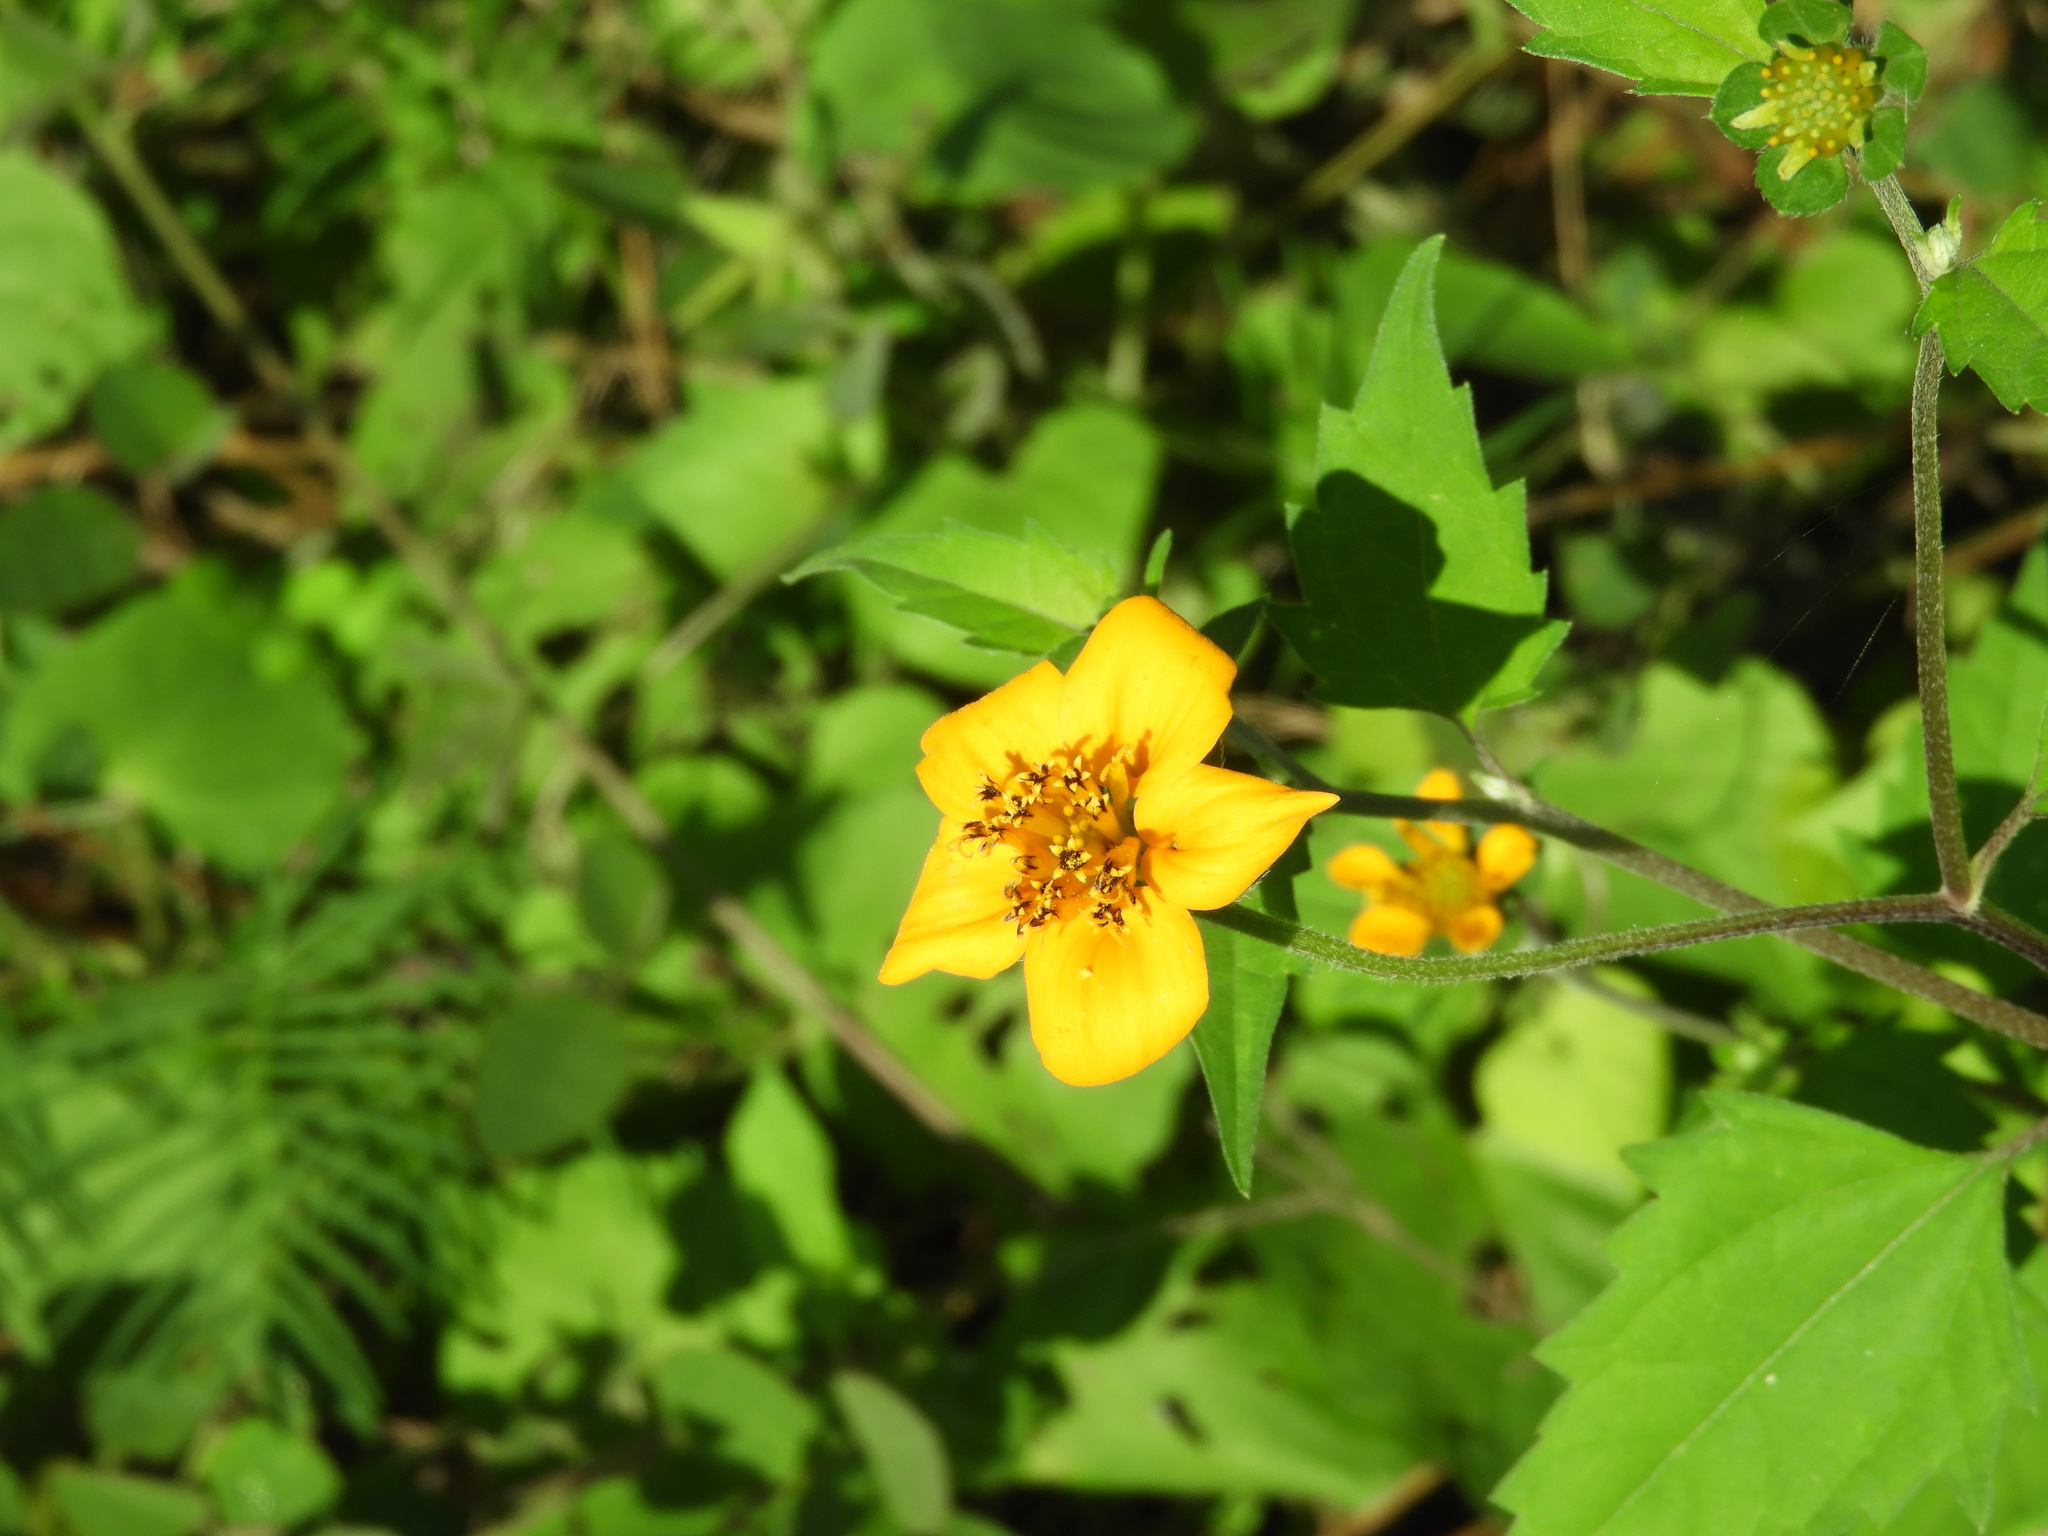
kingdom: Plantae
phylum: Tracheophyta
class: Magnoliopsida
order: Asterales
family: Asteraceae
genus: Sclerocarpus
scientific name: Sclerocarpus divaricatus
